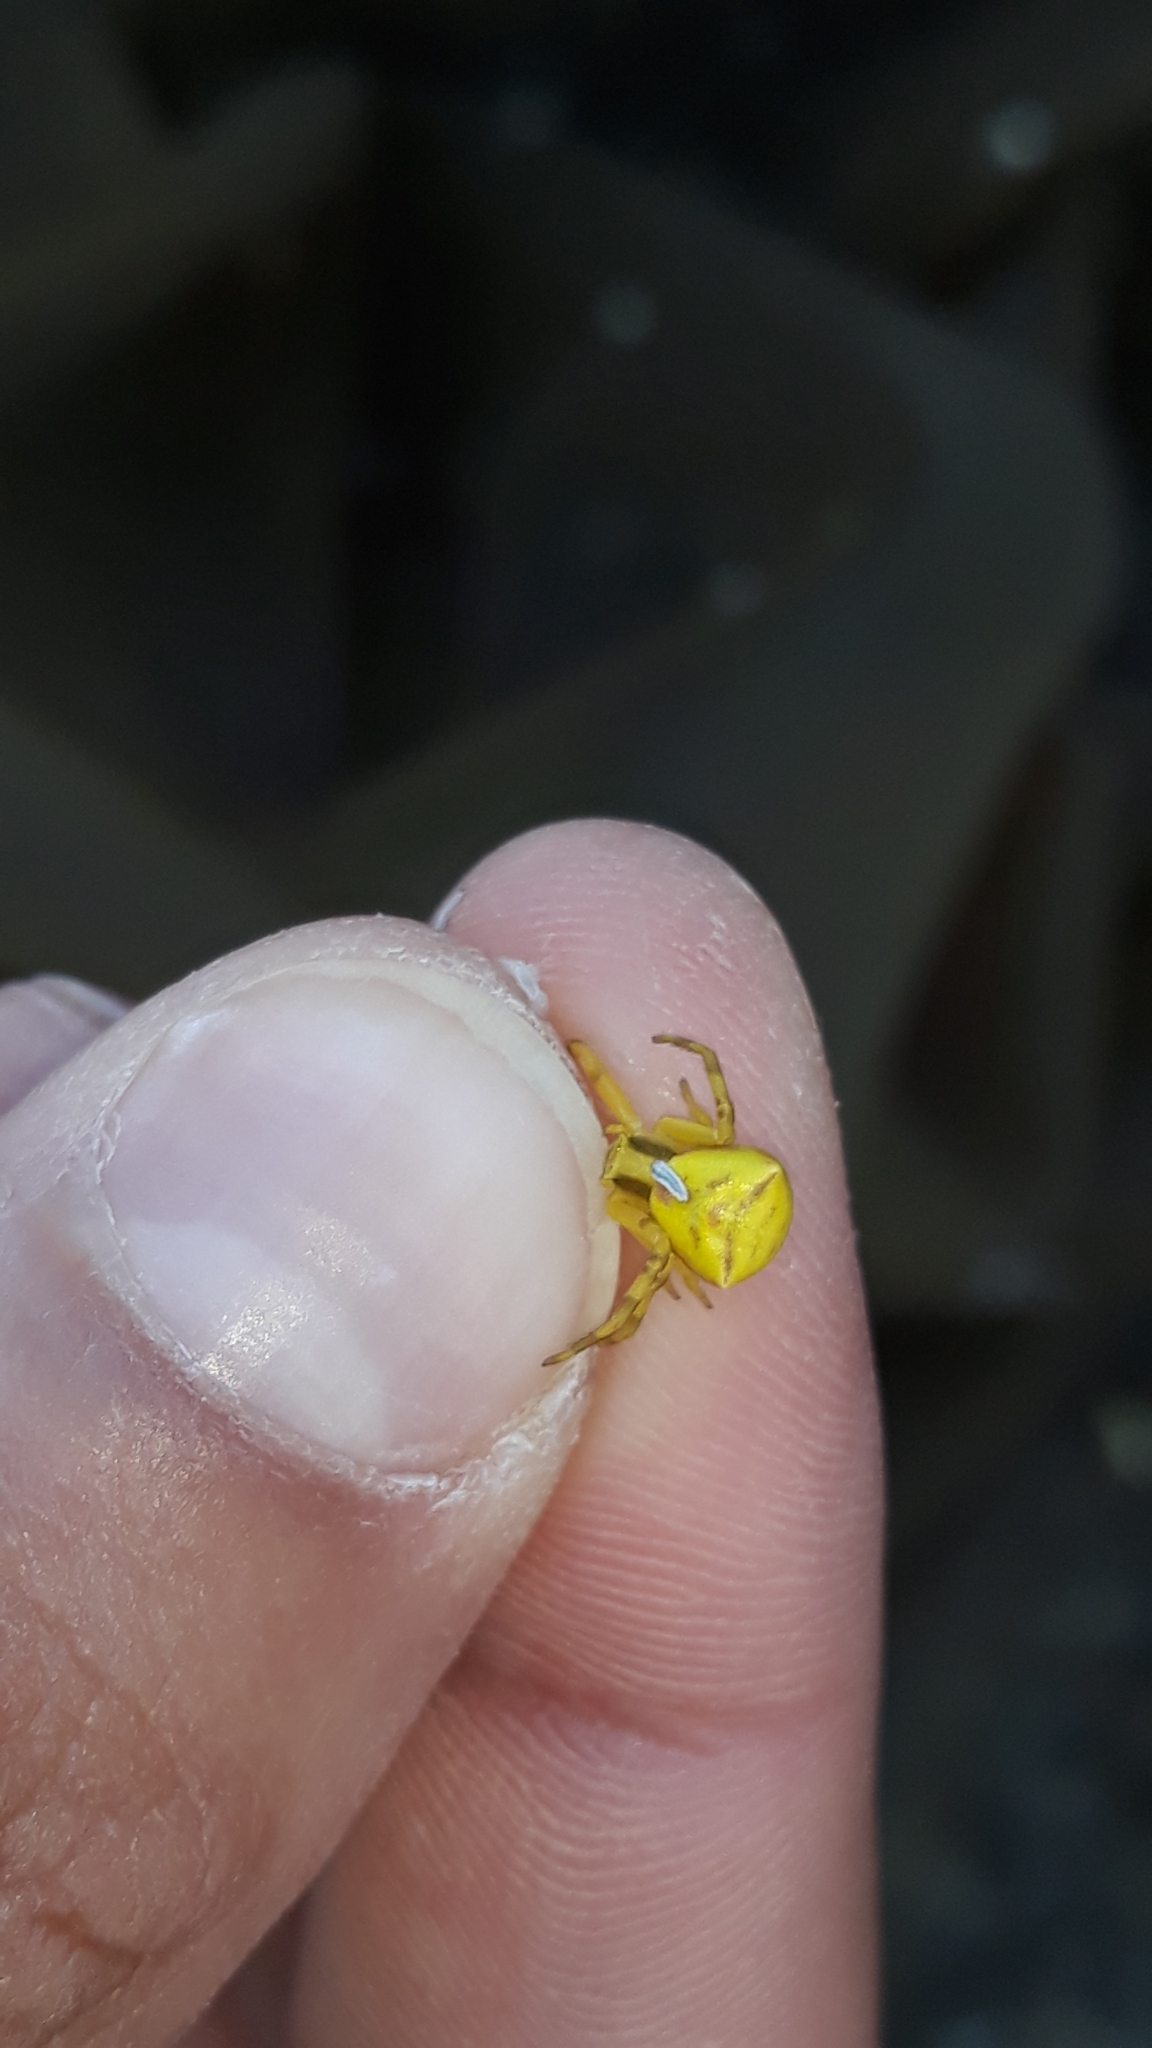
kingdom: Animalia
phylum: Arthropoda
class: Arachnida
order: Araneae
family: Thomisidae
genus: Thomisus
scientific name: Thomisus onustus
